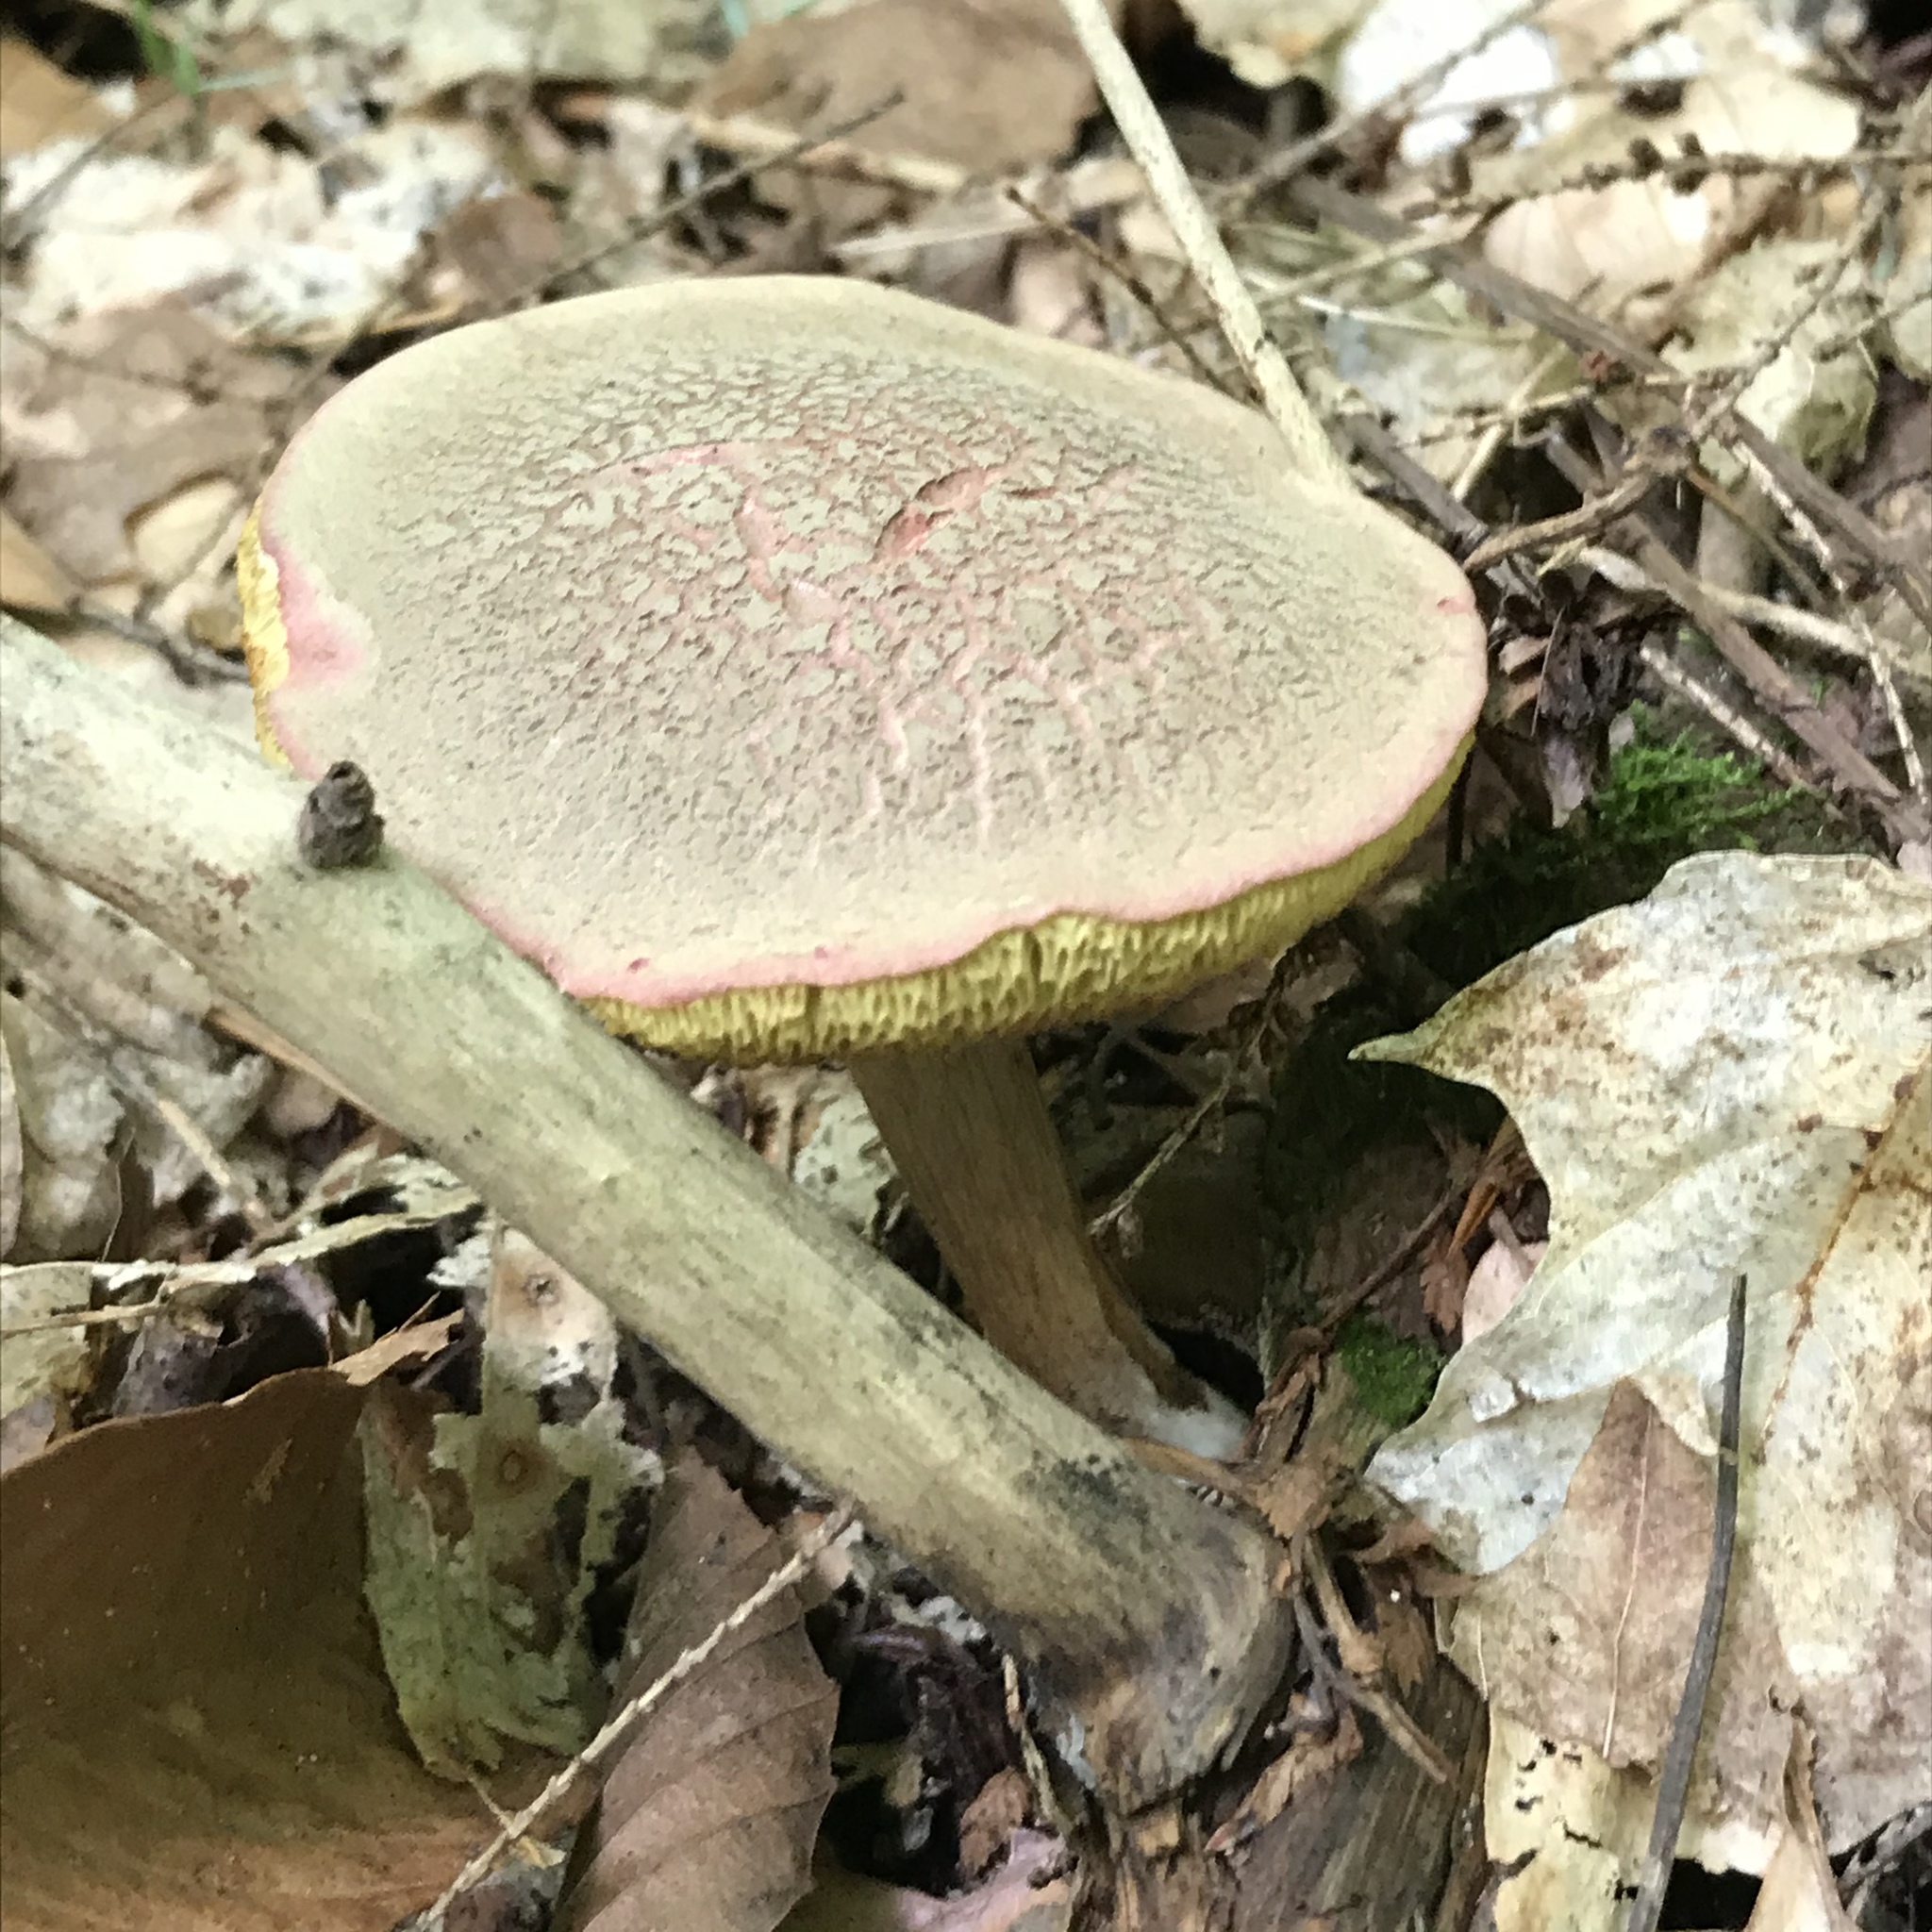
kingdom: Fungi
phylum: Basidiomycota
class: Agaricomycetes
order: Boletales
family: Boletaceae
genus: Xerocomellus
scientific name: Xerocomellus chrysenteron
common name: Red-cracking bolete
